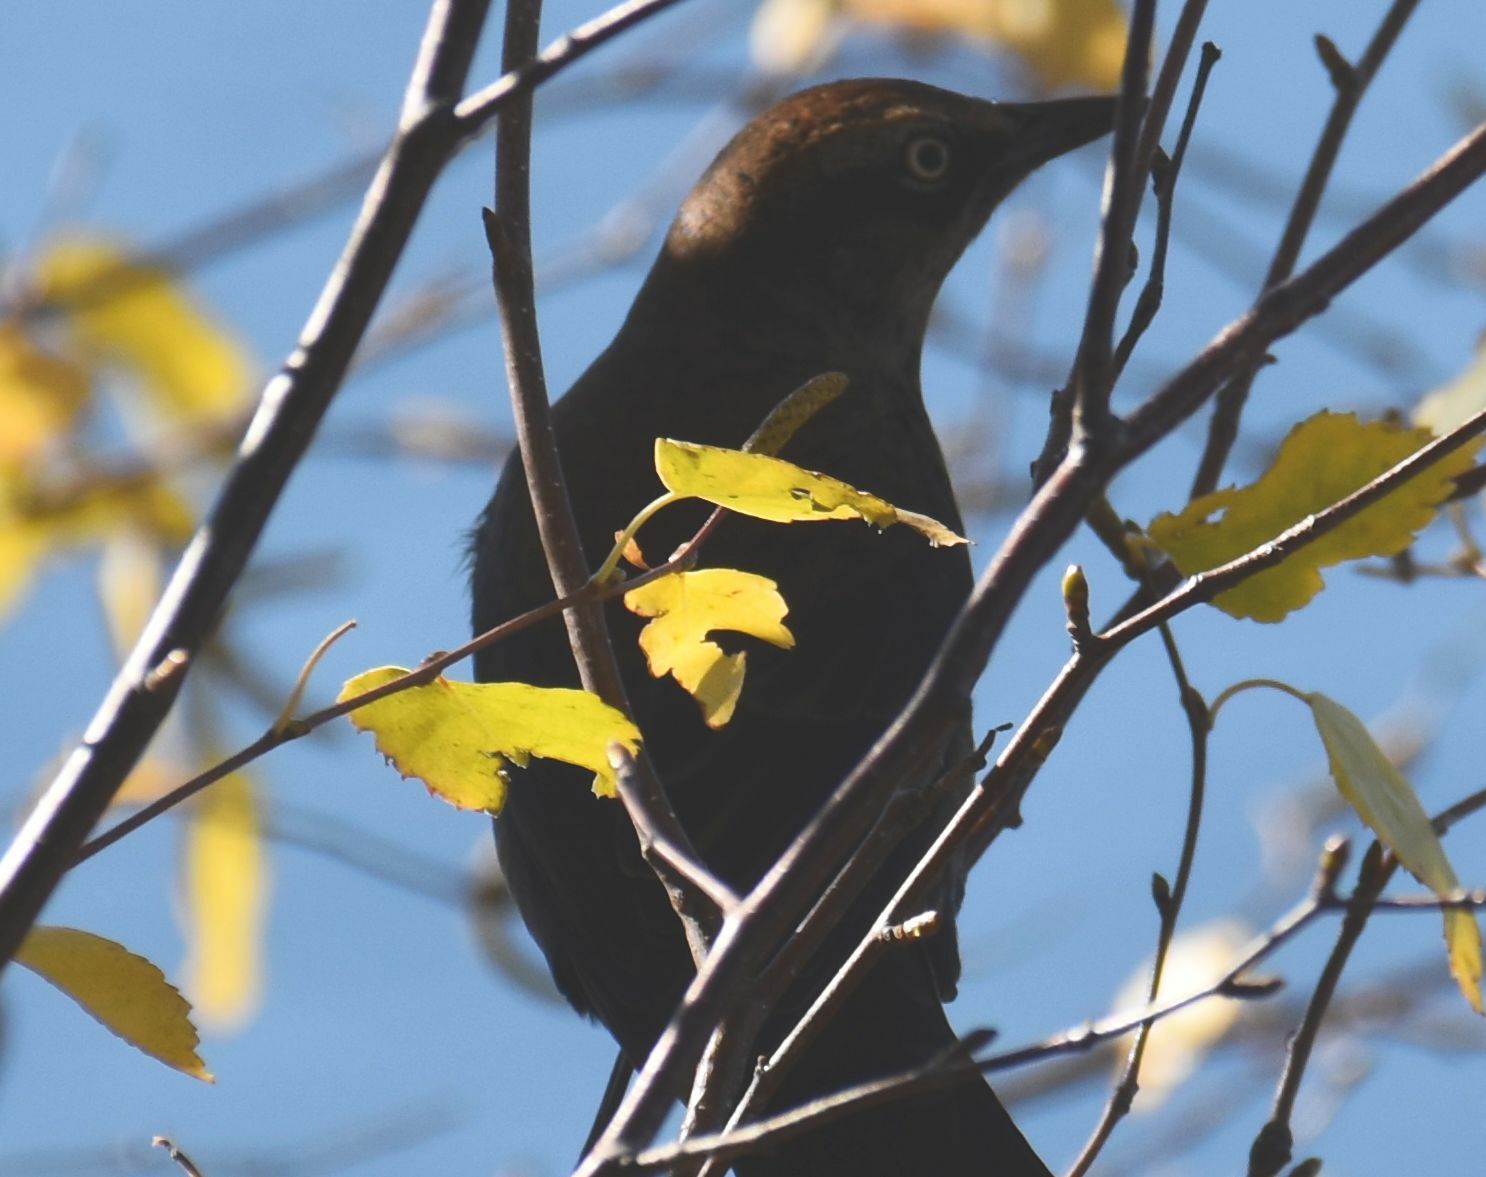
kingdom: Animalia
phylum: Chordata
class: Aves
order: Passeriformes
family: Icteridae
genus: Euphagus
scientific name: Euphagus carolinus
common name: Rusty blackbird
